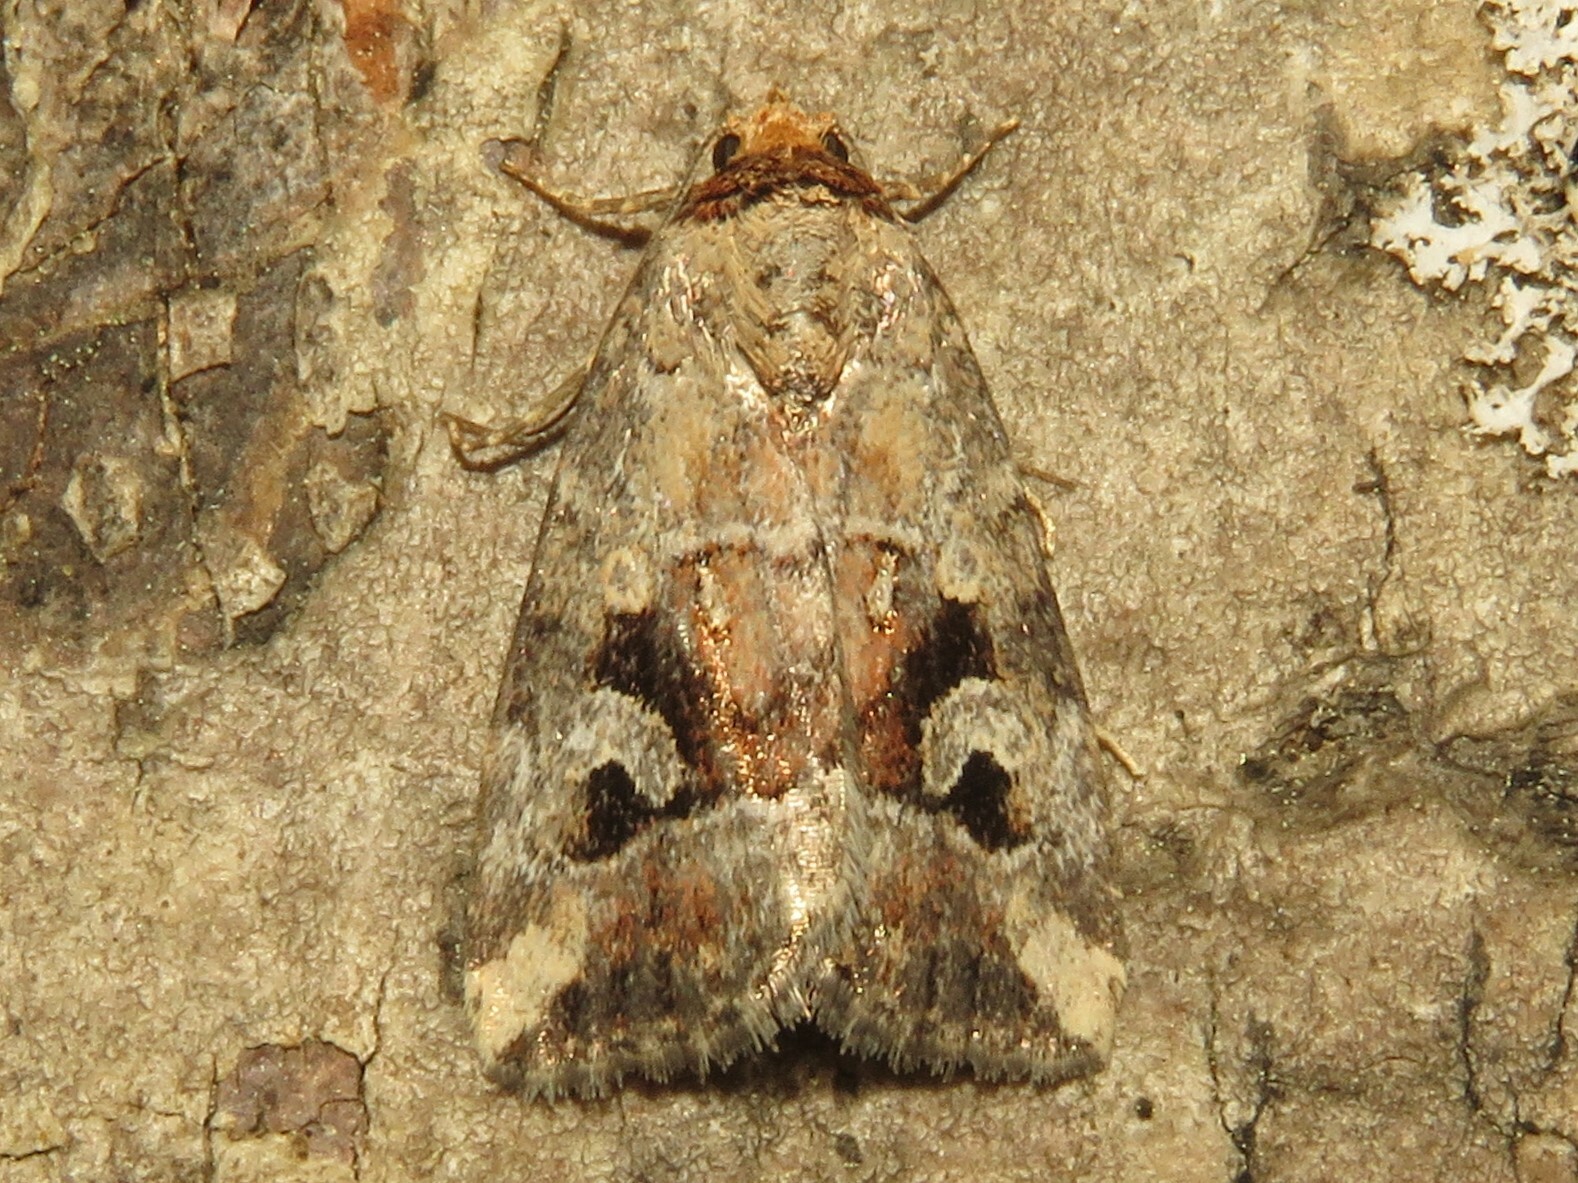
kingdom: Animalia
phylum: Arthropoda
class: Insecta
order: Lepidoptera
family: Noctuidae
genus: Elaphria
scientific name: Elaphria alapallida
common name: Pale-winged midget
